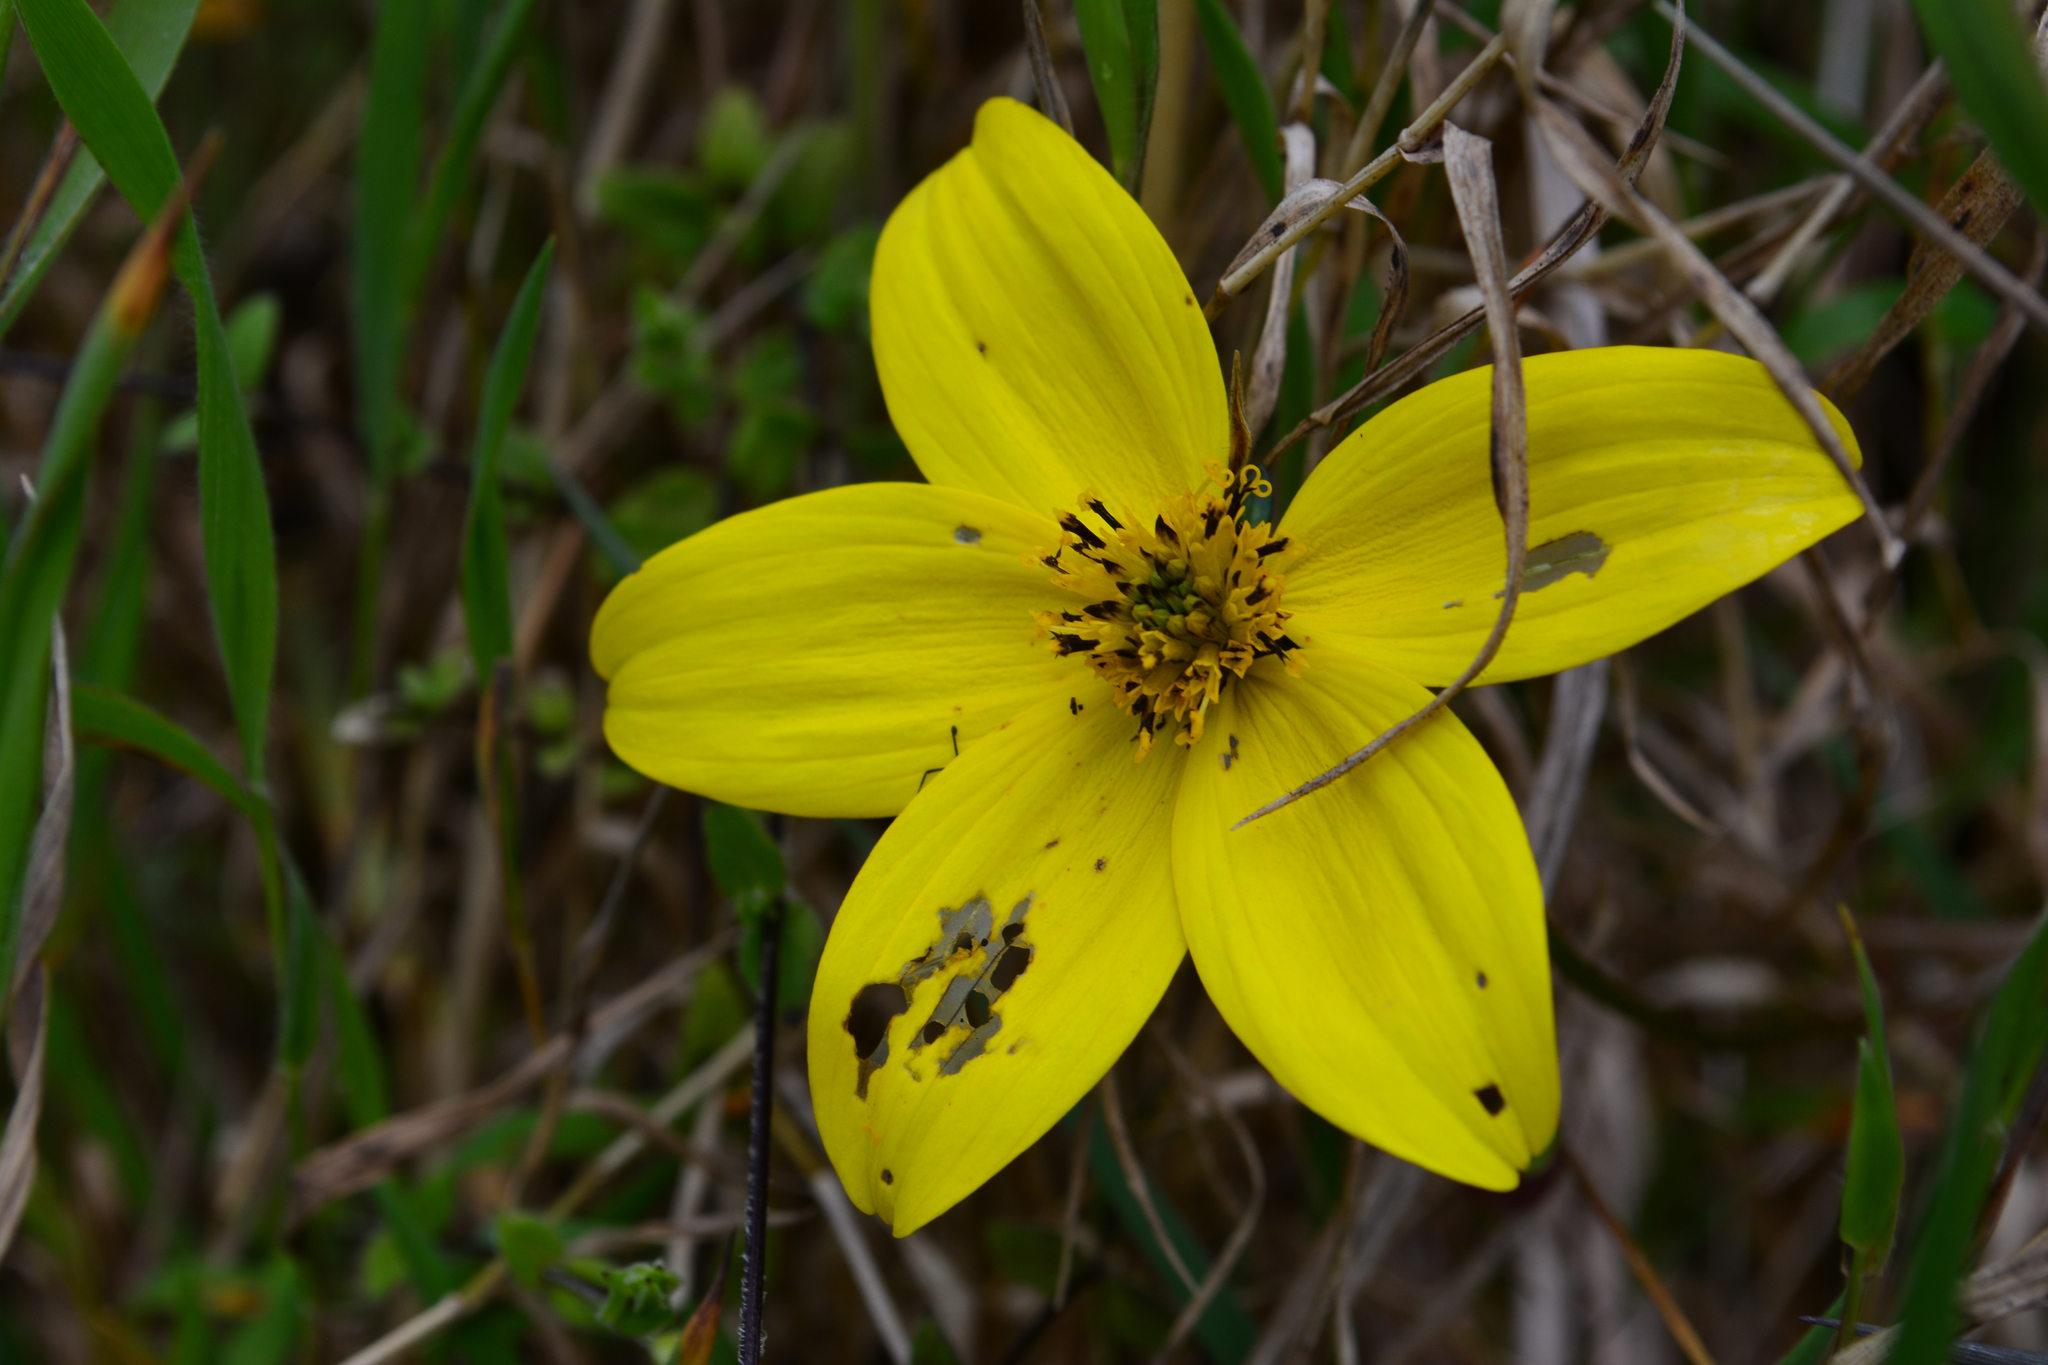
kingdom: Plantae
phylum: Tracheophyta
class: Magnoliopsida
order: Asterales
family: Asteraceae
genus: Bidens
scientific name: Bidens andicola
